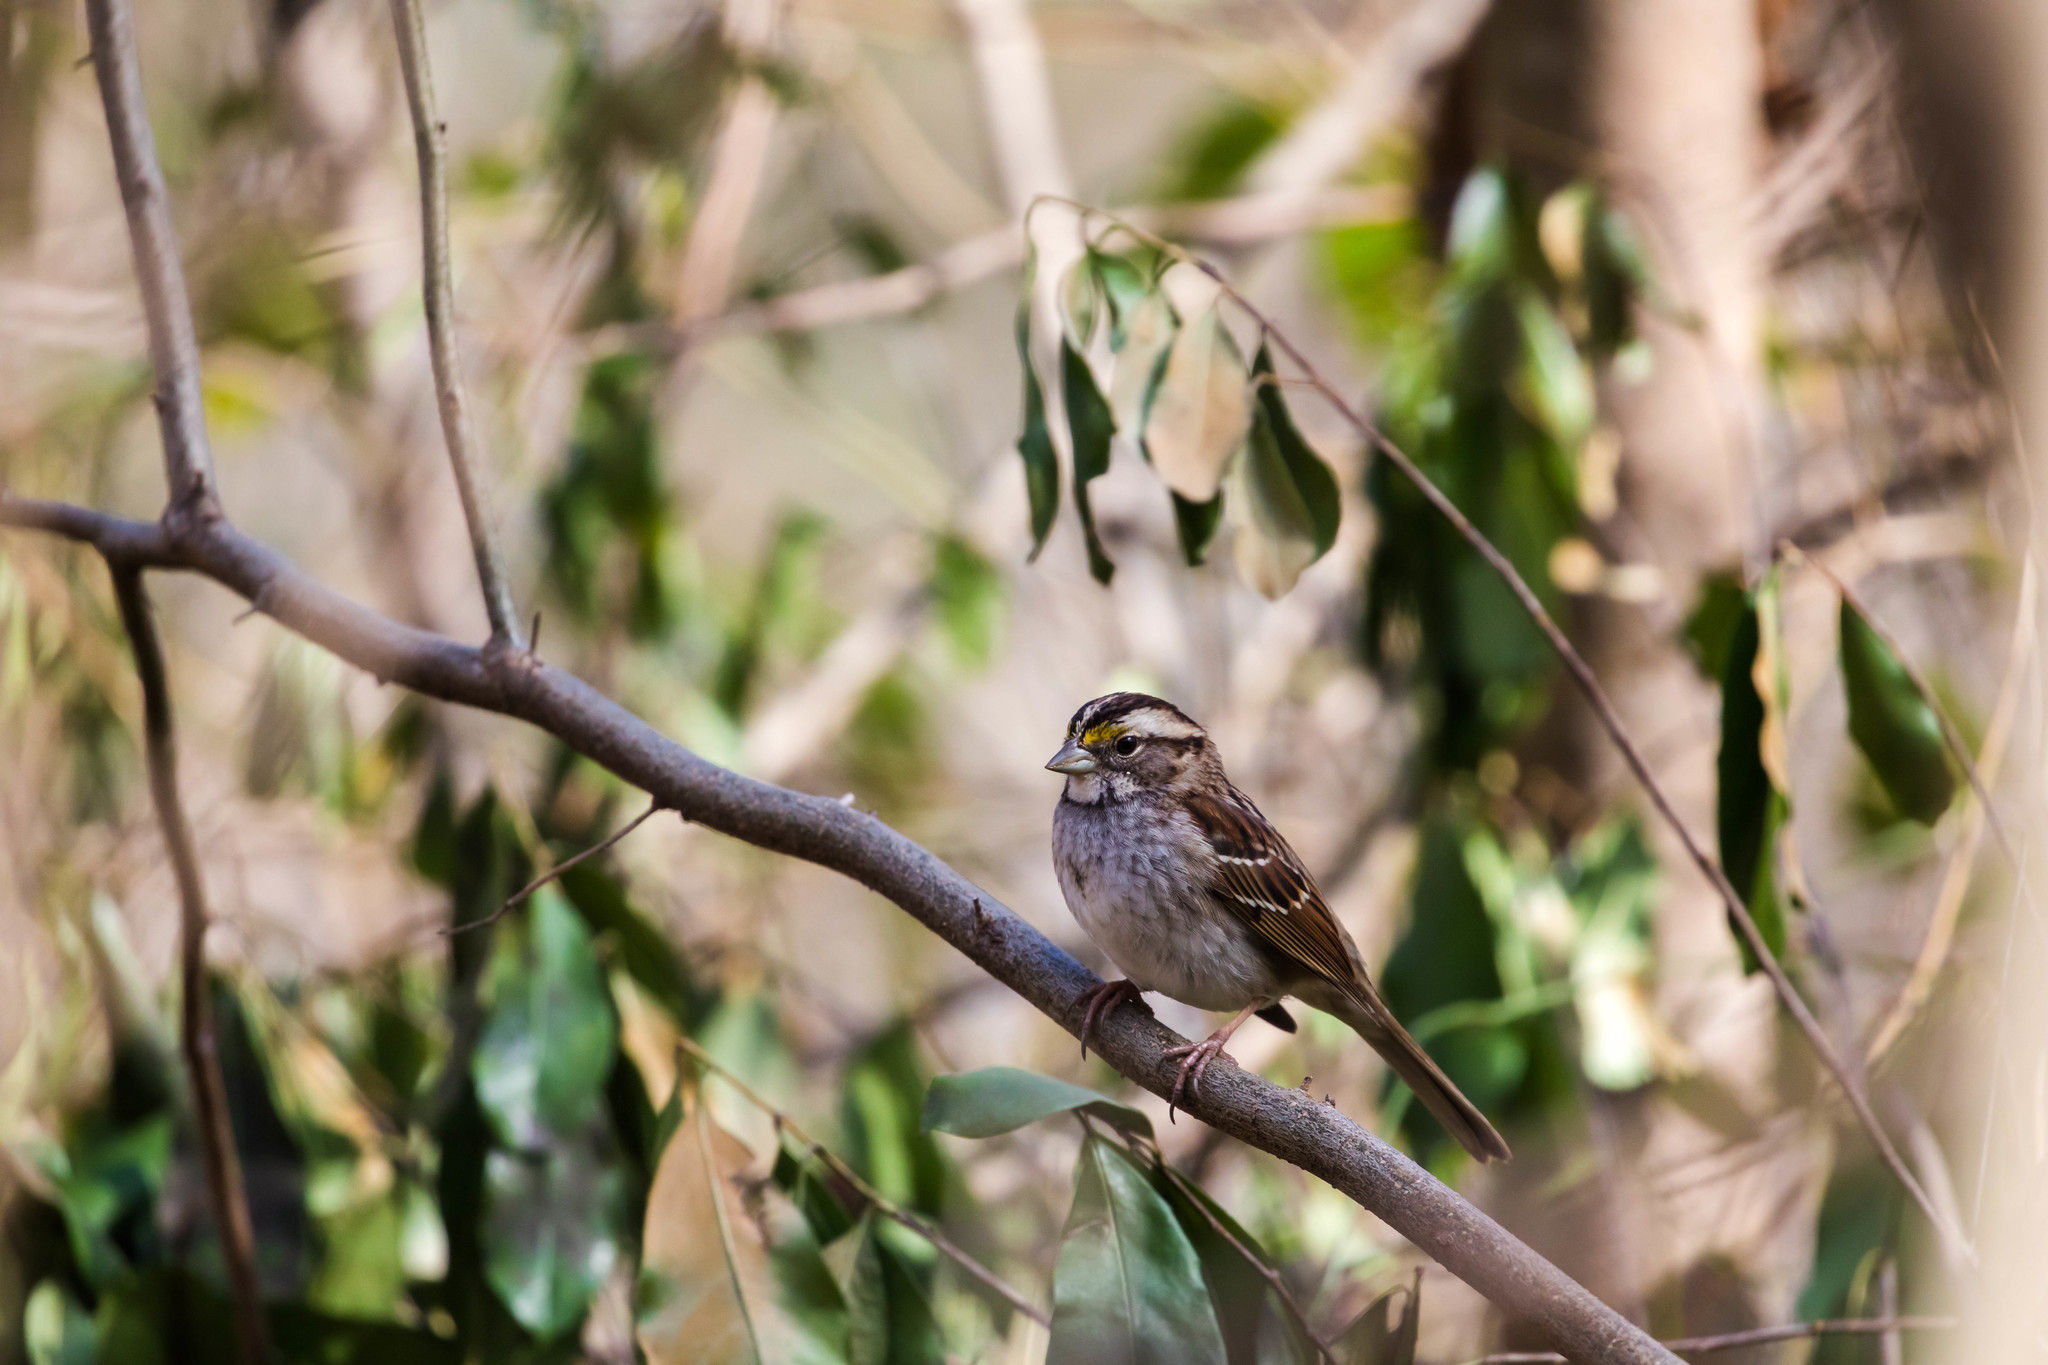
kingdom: Animalia
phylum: Chordata
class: Aves
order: Passeriformes
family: Passerellidae
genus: Zonotrichia
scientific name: Zonotrichia albicollis
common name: White-throated sparrow
